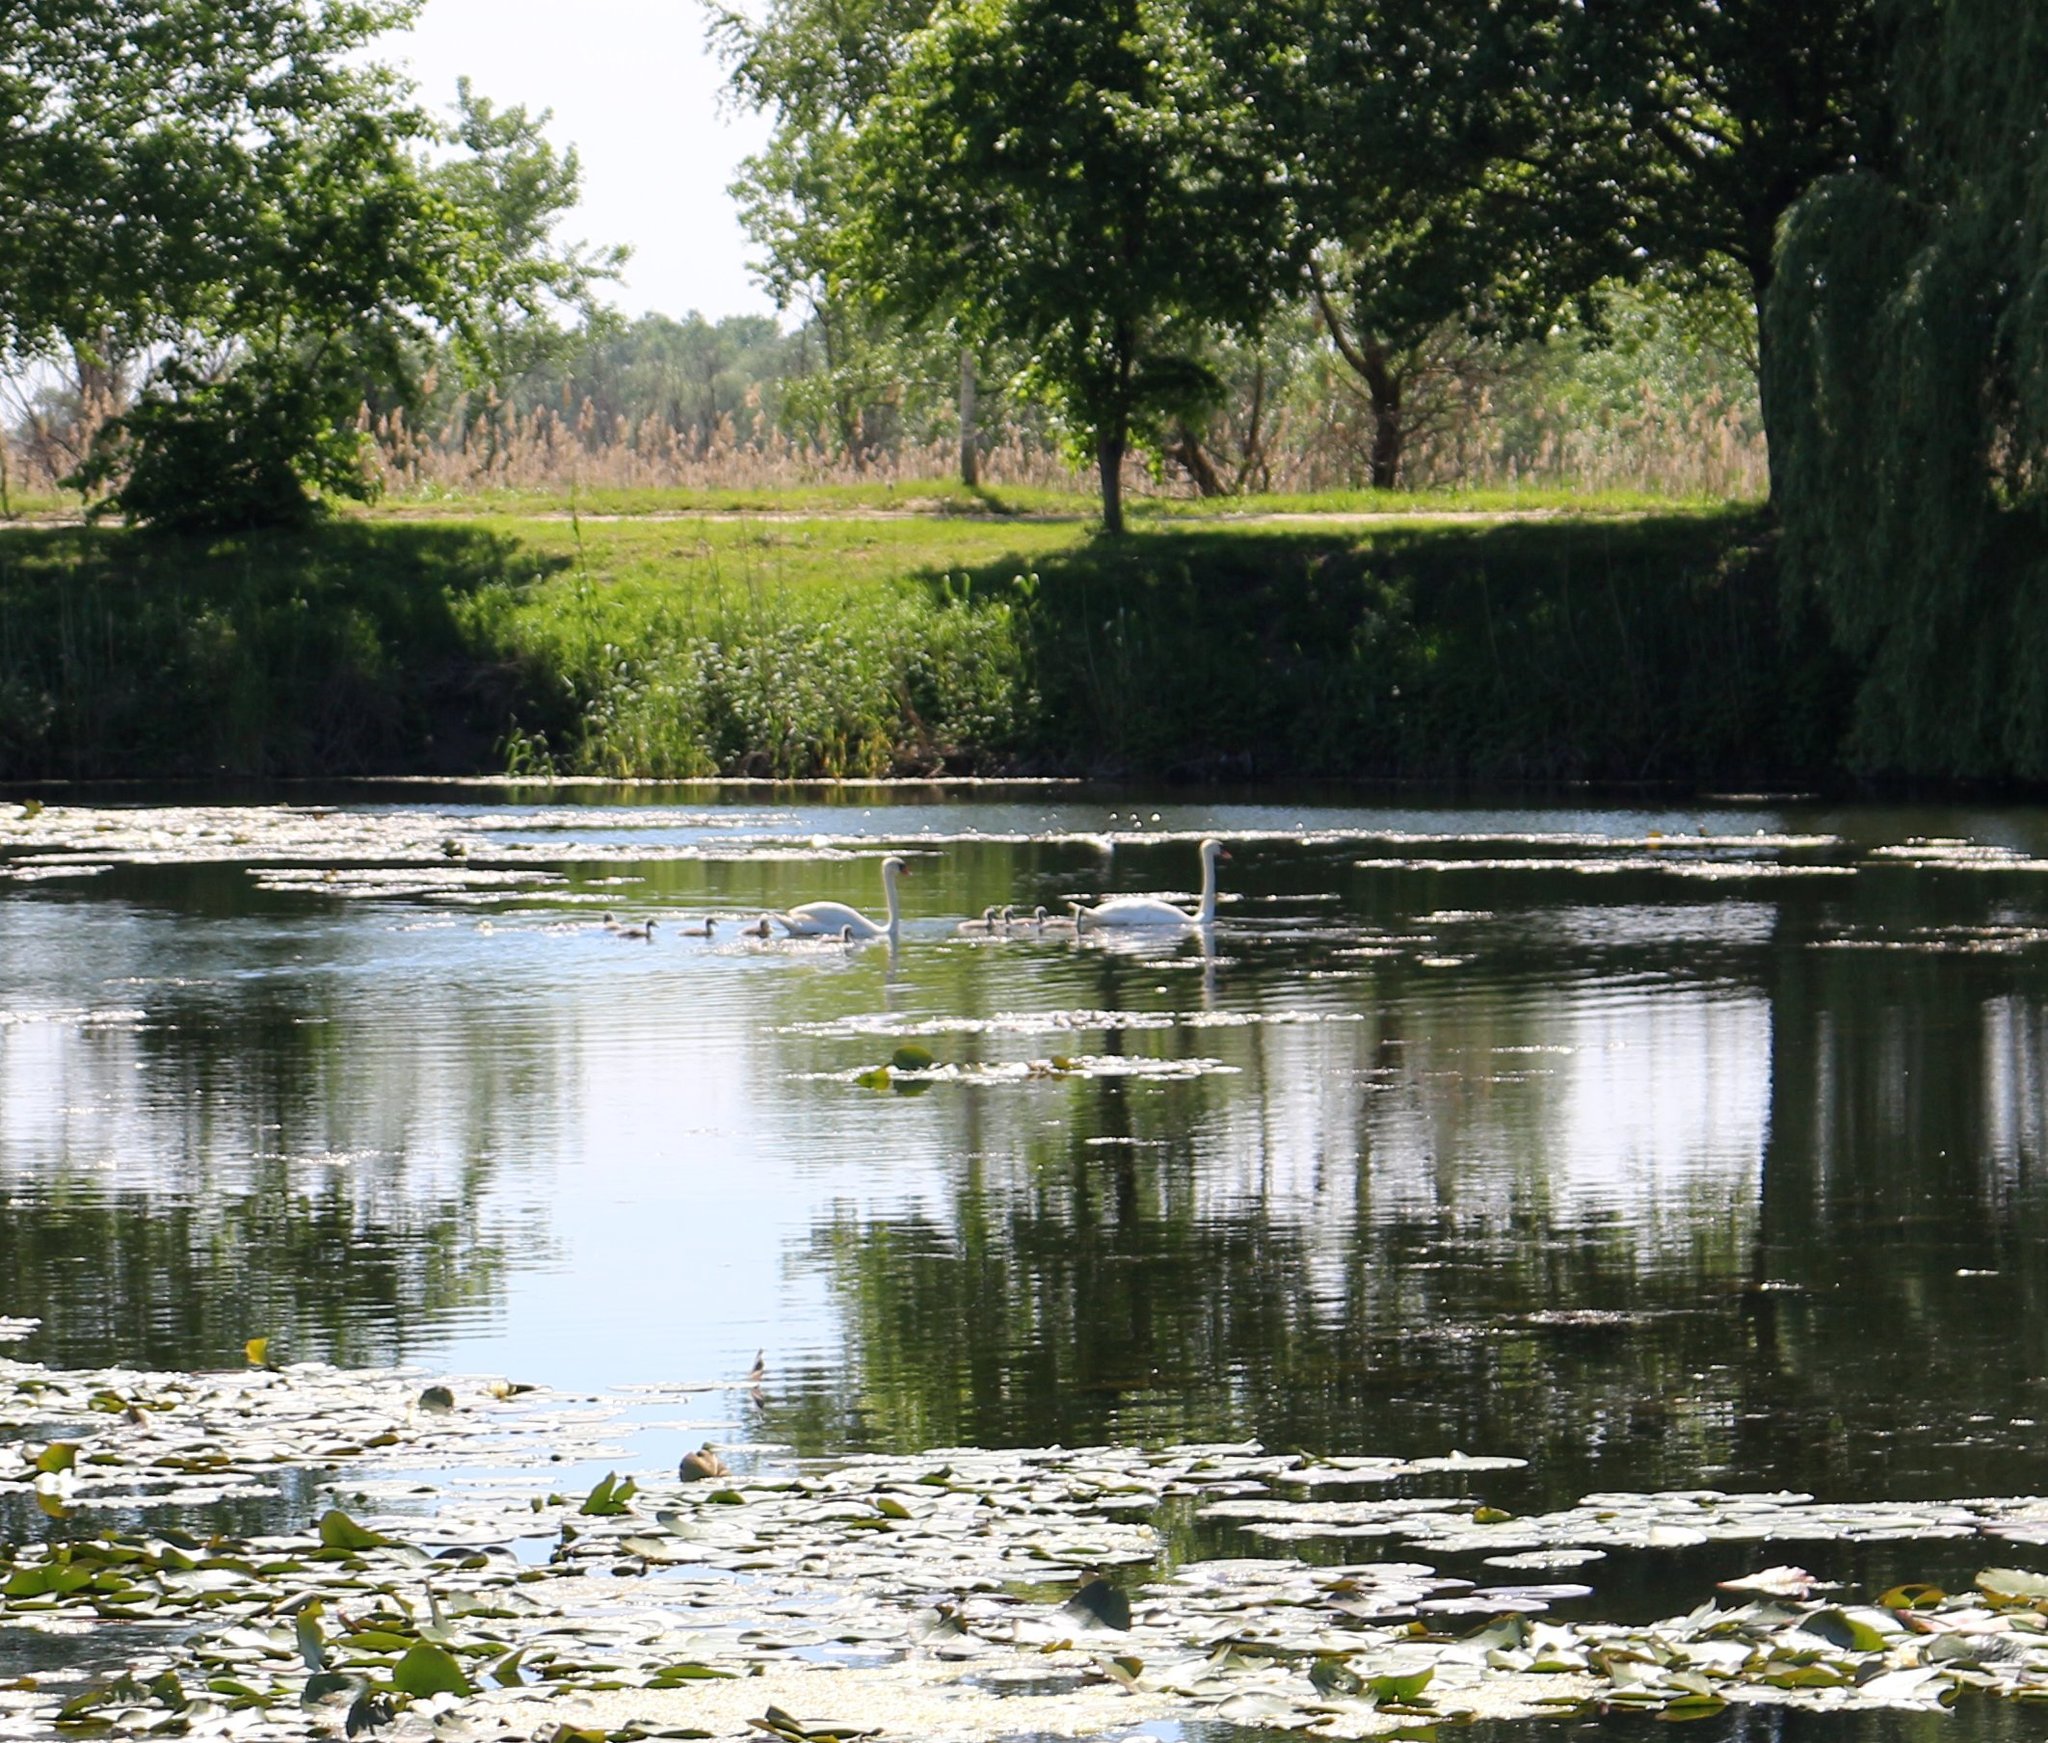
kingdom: Animalia
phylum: Chordata
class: Aves
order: Anseriformes
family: Anatidae
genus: Cygnus
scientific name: Cygnus olor
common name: Mute swan
